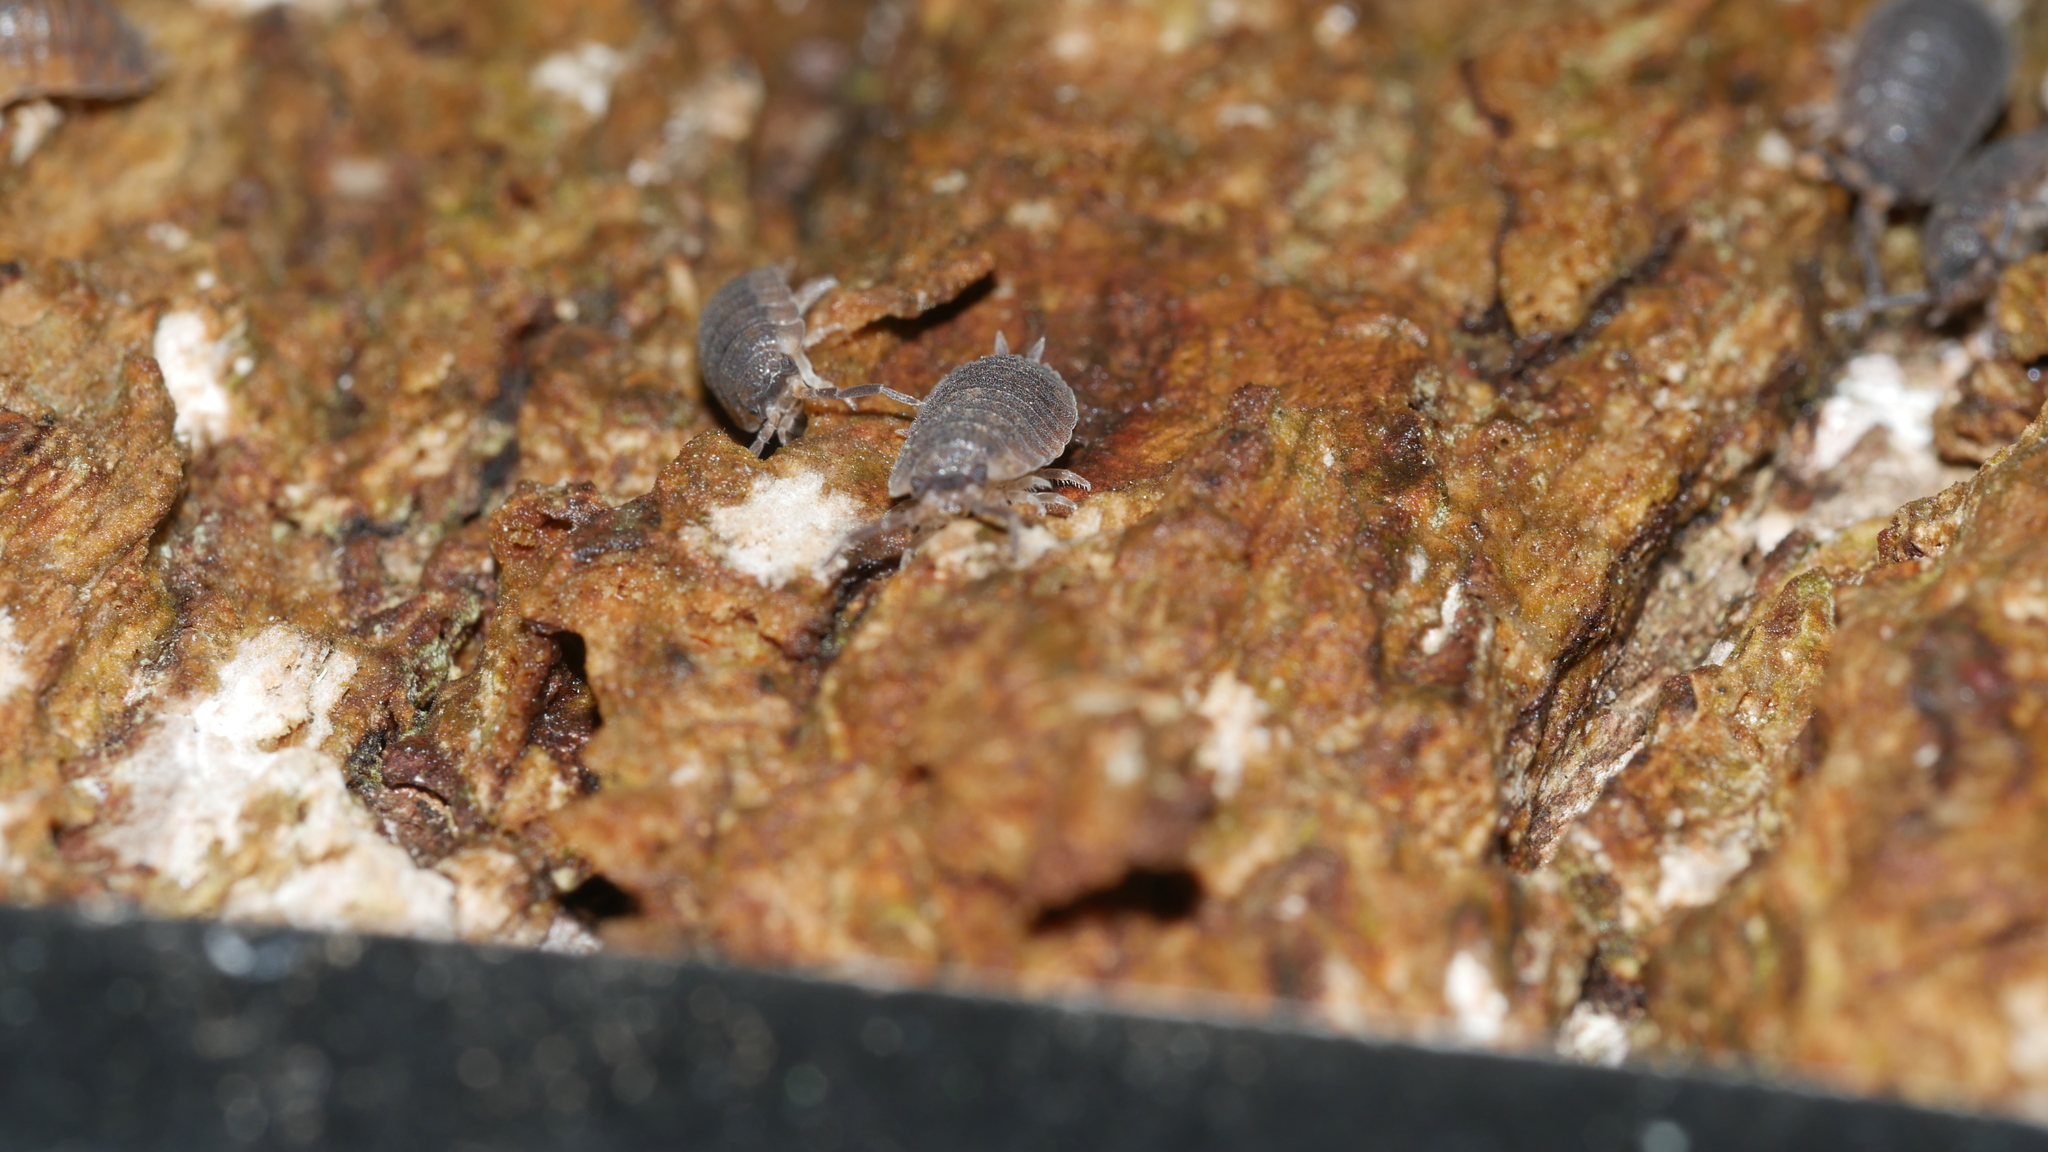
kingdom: Animalia
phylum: Arthropoda
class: Malacostraca
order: Isopoda
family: Porcellionidae
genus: Porcellio
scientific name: Porcellio scaber
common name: Common rough woodlouse
